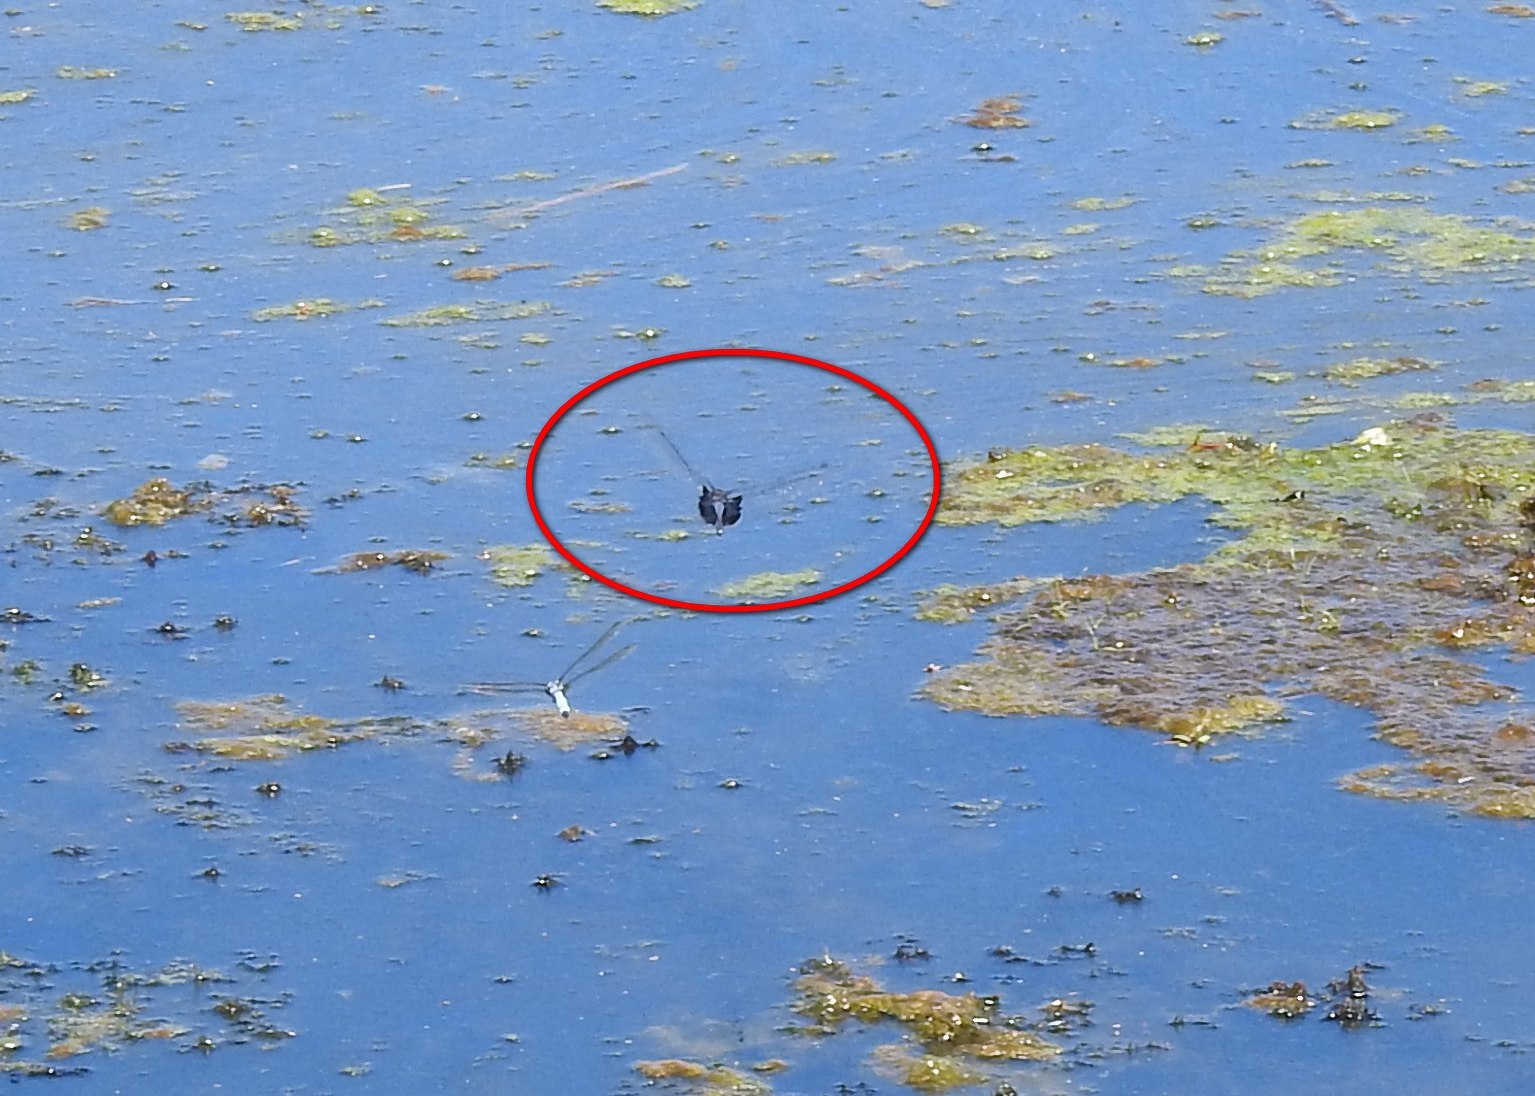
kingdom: Animalia
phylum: Arthropoda
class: Insecta
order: Odonata
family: Libellulidae
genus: Tramea
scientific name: Tramea lacerata
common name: Black saddlebags
